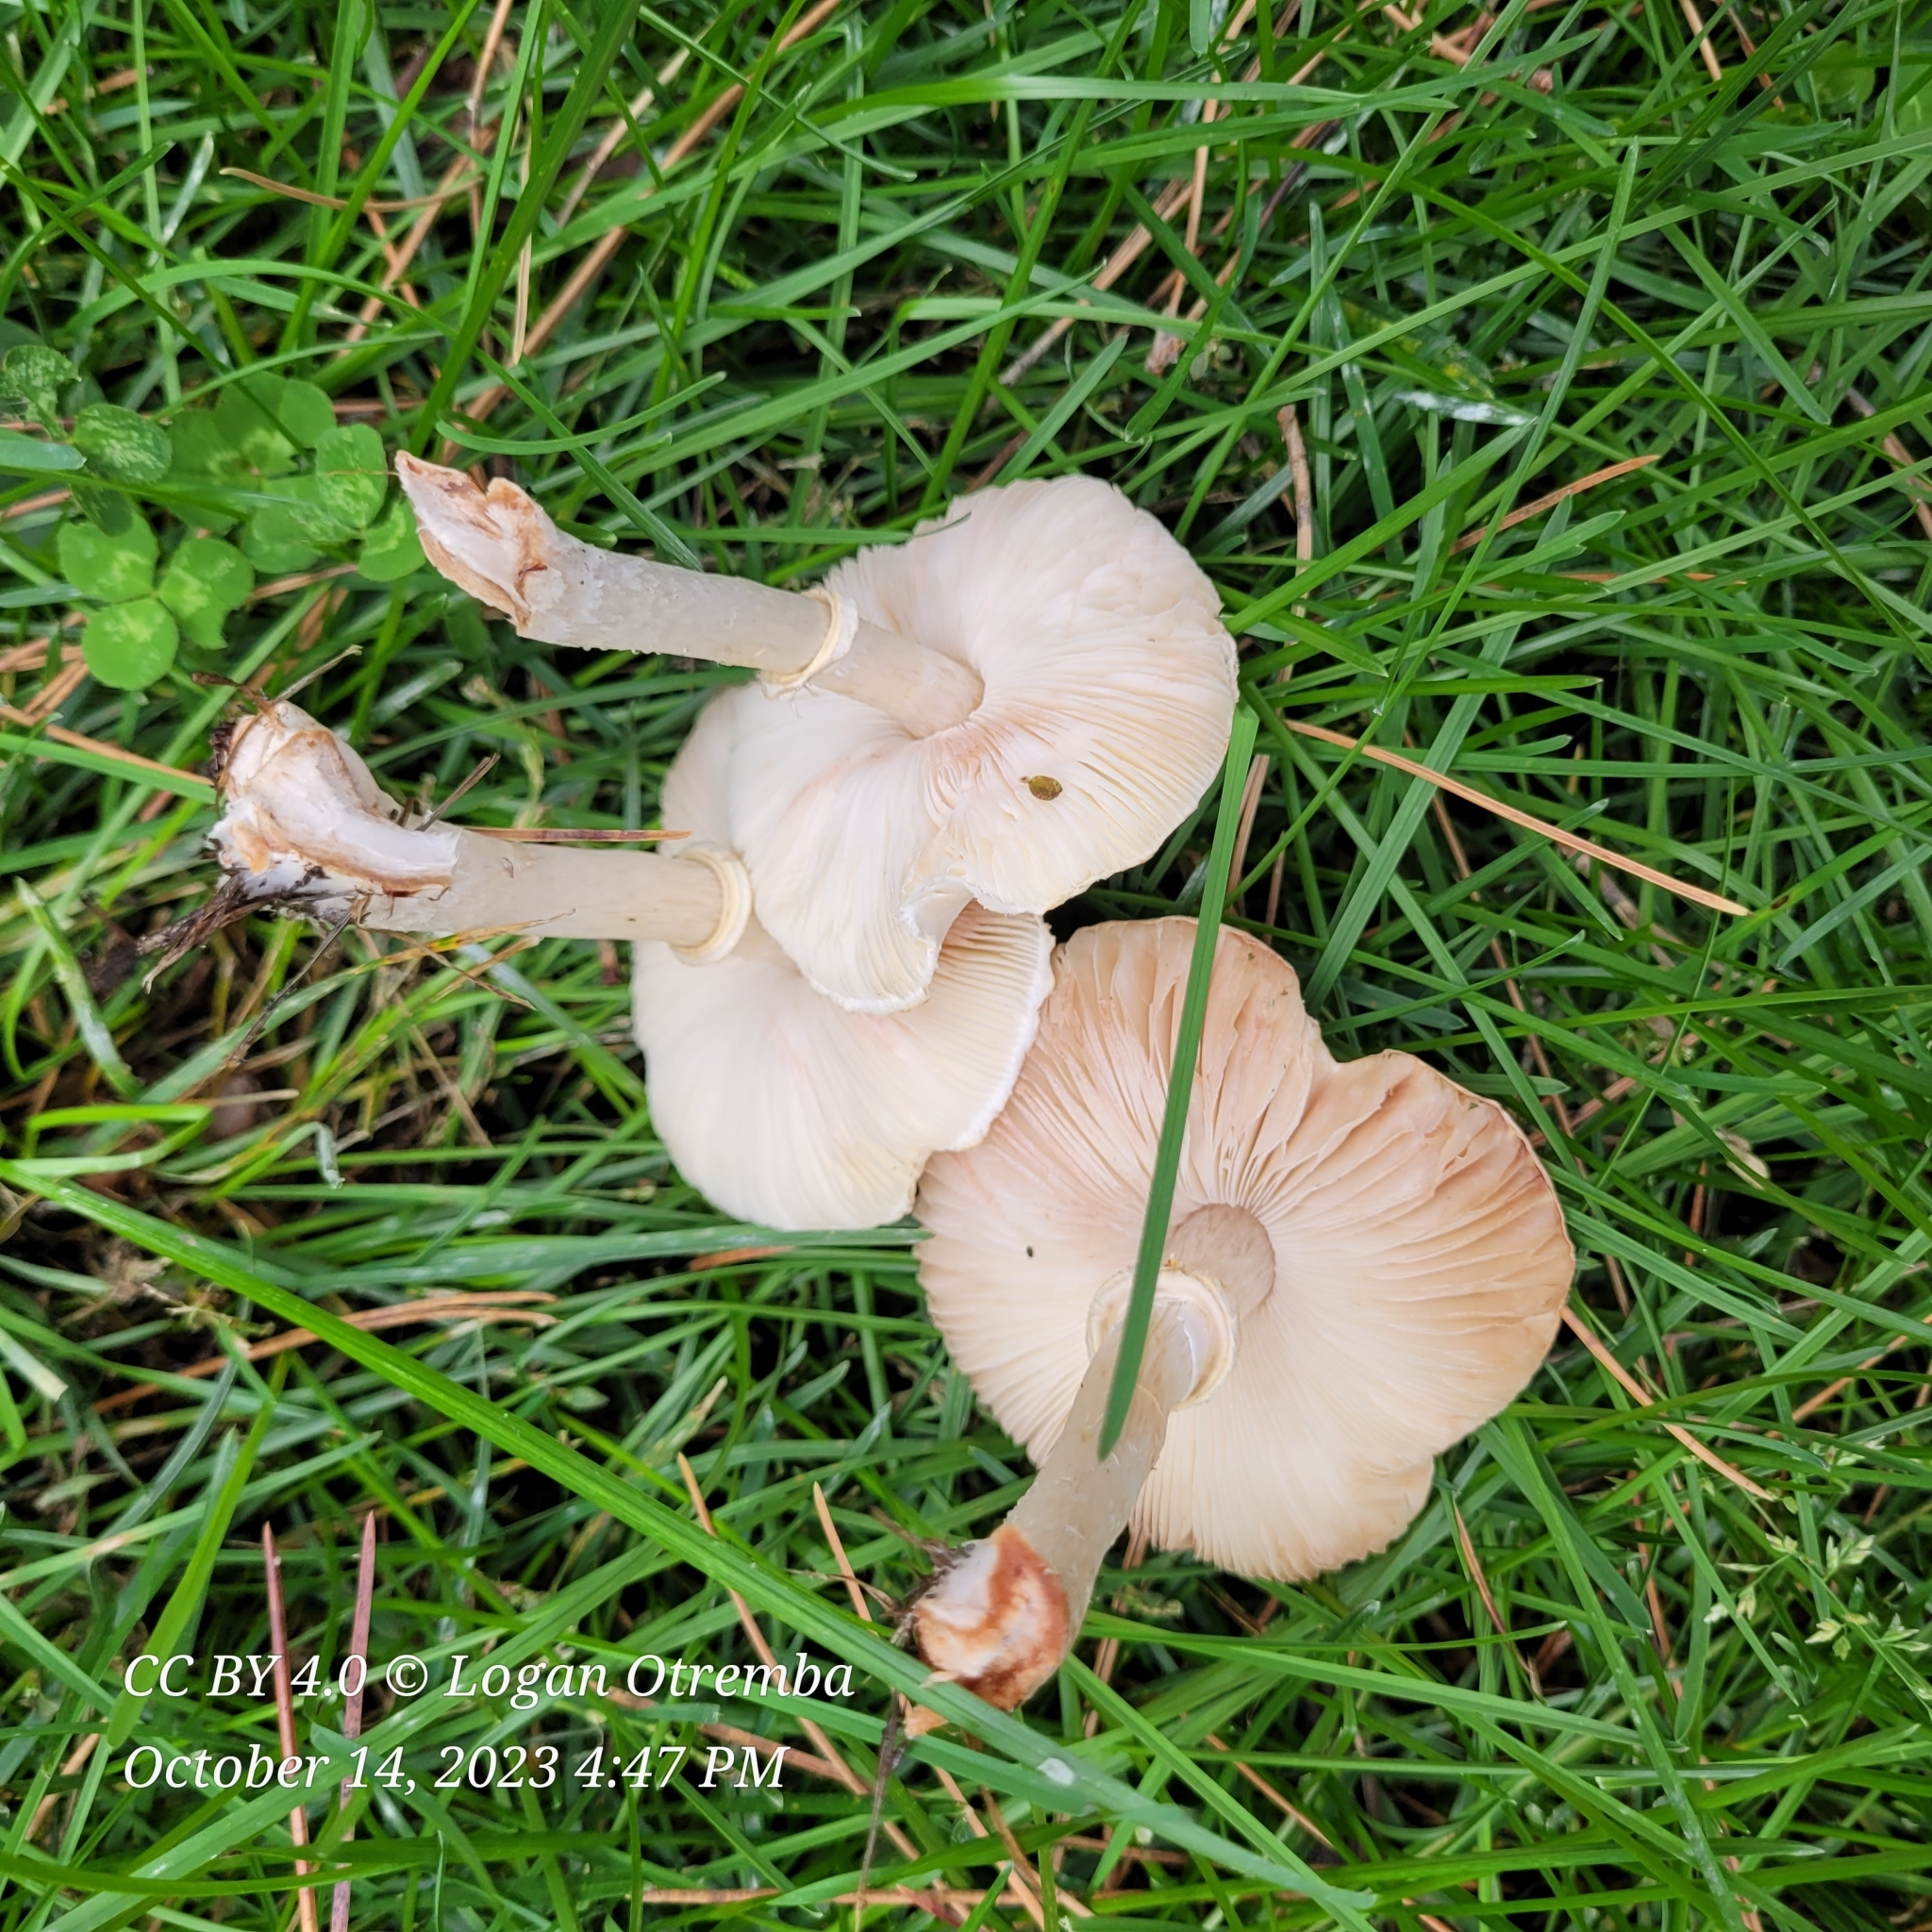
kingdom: Fungi
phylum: Basidiomycota
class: Agaricomycetes
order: Agaricales
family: Agaricaceae
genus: Leucoagaricus
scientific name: Leucoagaricus leucothites
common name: White dapperling
